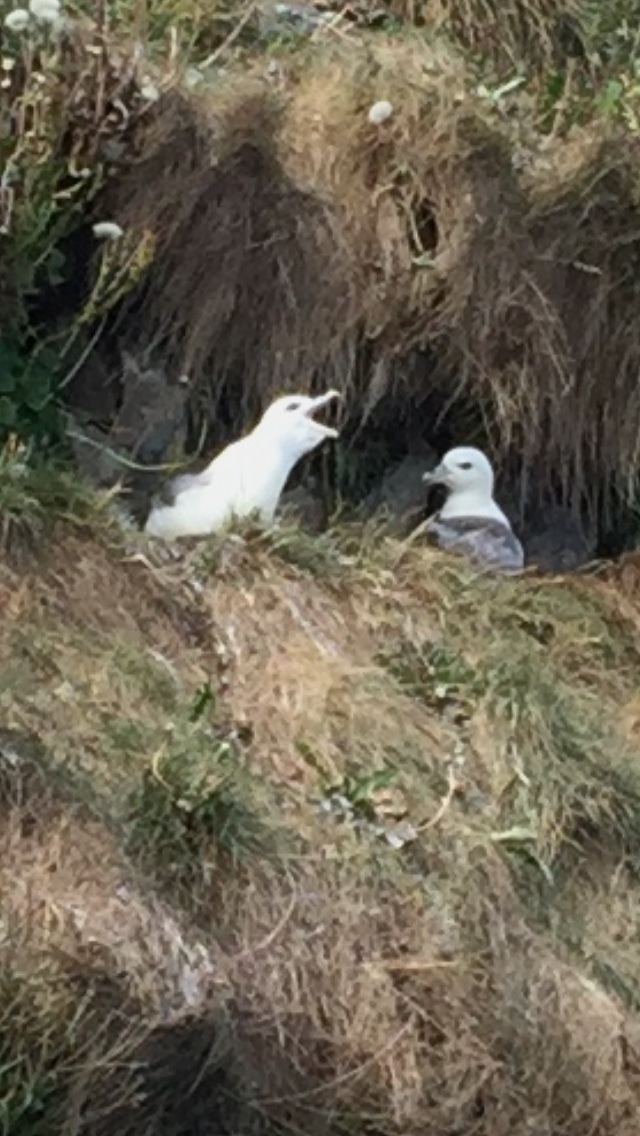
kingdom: Animalia
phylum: Chordata
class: Aves
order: Procellariiformes
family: Procellariidae
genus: Fulmarus
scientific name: Fulmarus glacialis
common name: Northern fulmar
